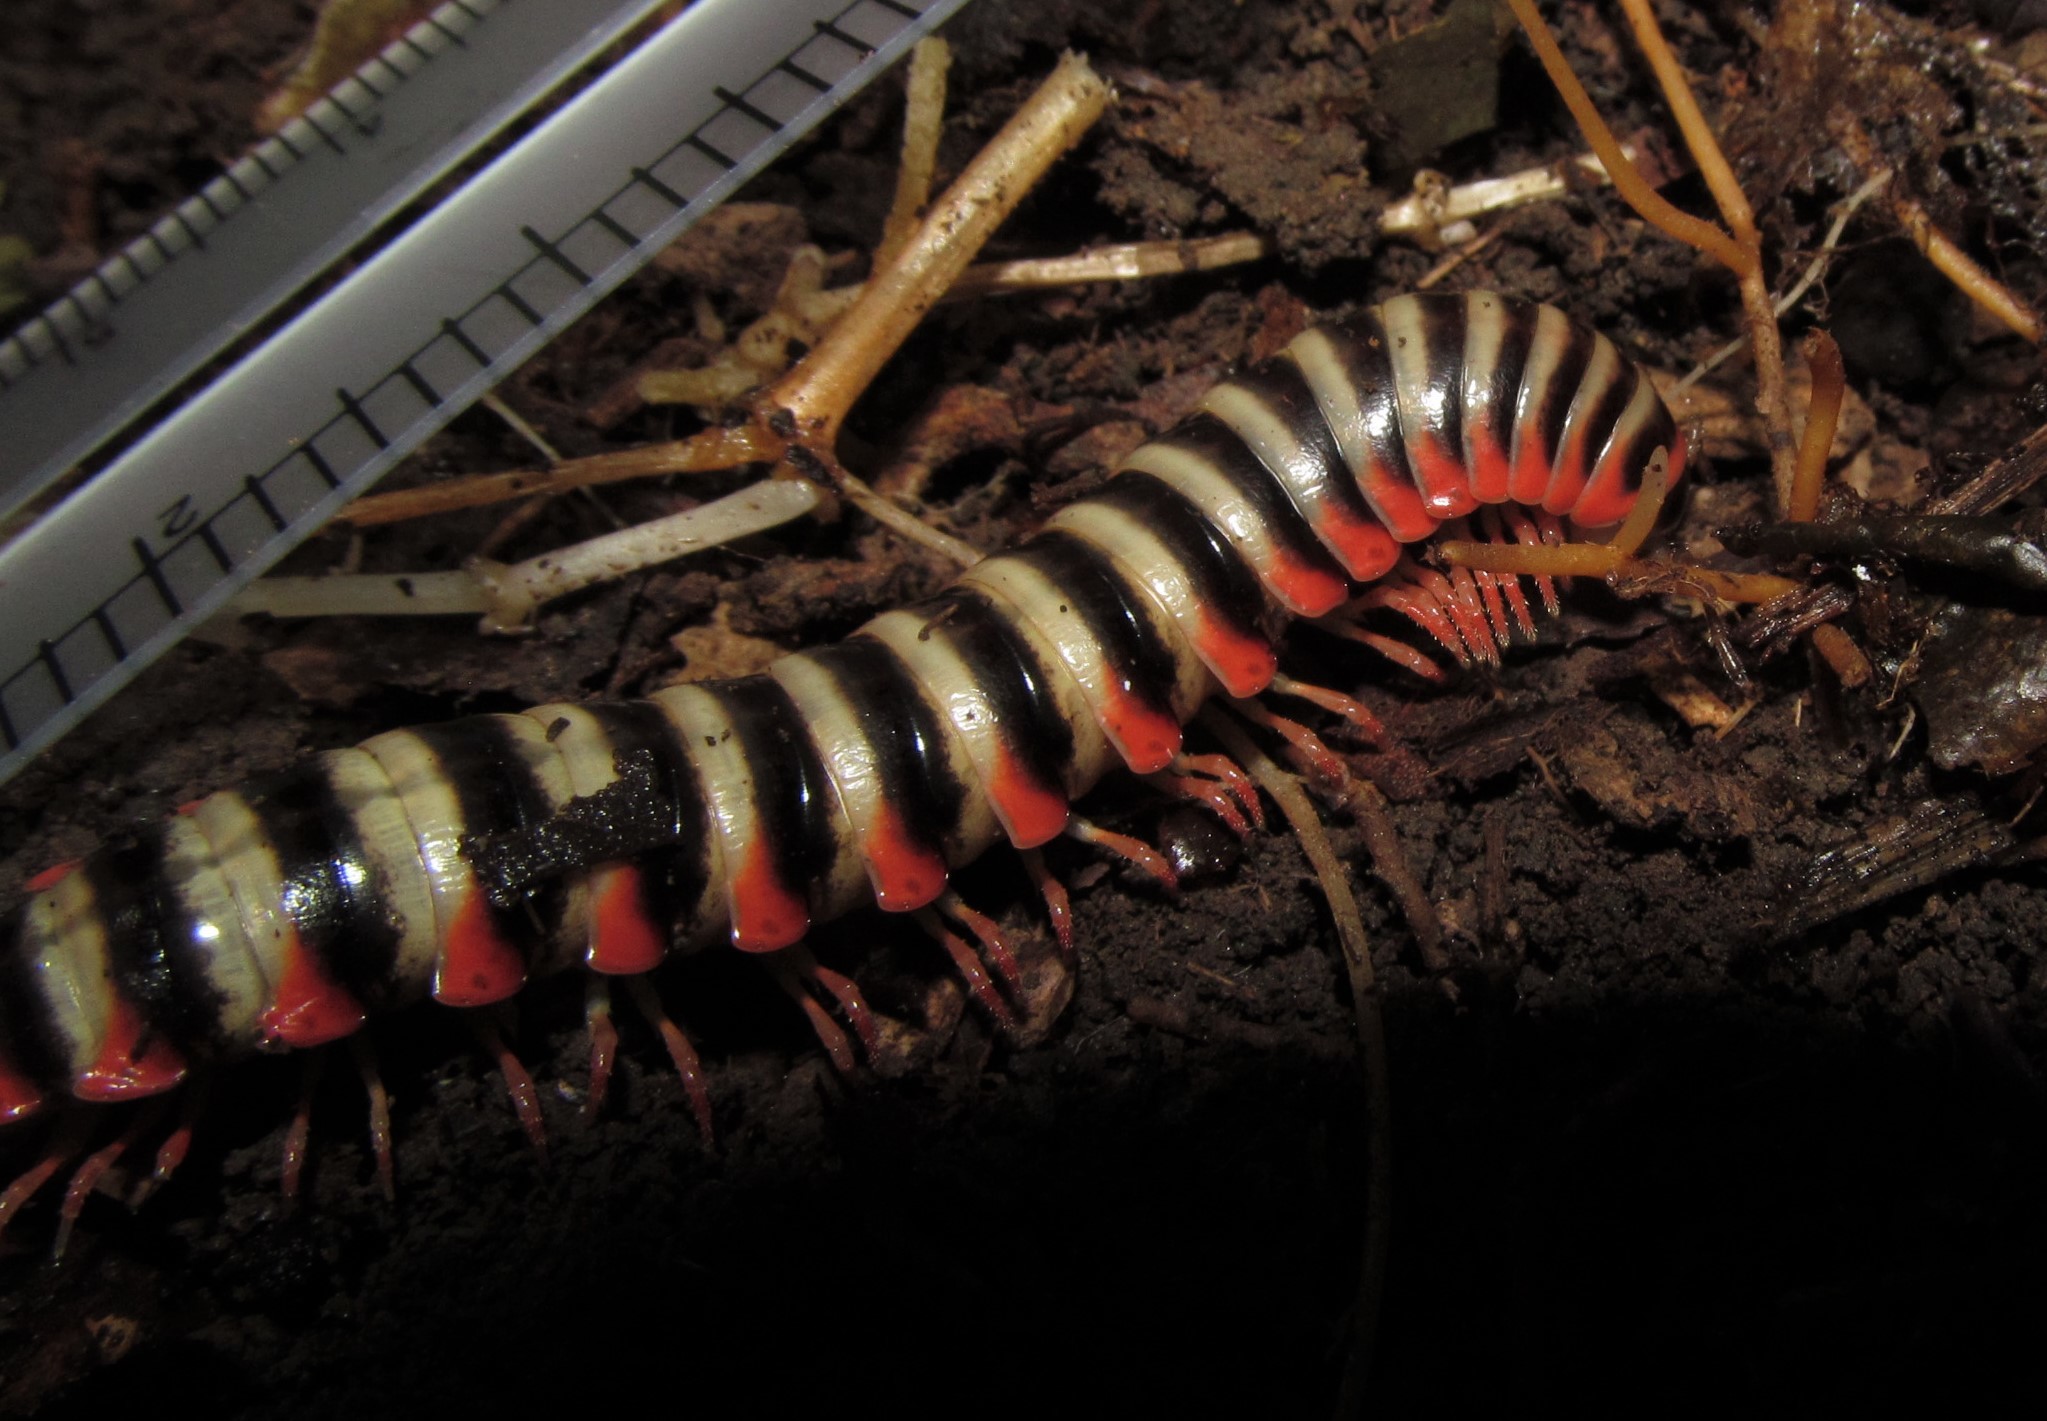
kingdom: Animalia
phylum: Arthropoda
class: Diplopoda
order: Polydesmida
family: Xystodesmidae
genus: Sigmoria
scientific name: Sigmoria nantahalae
